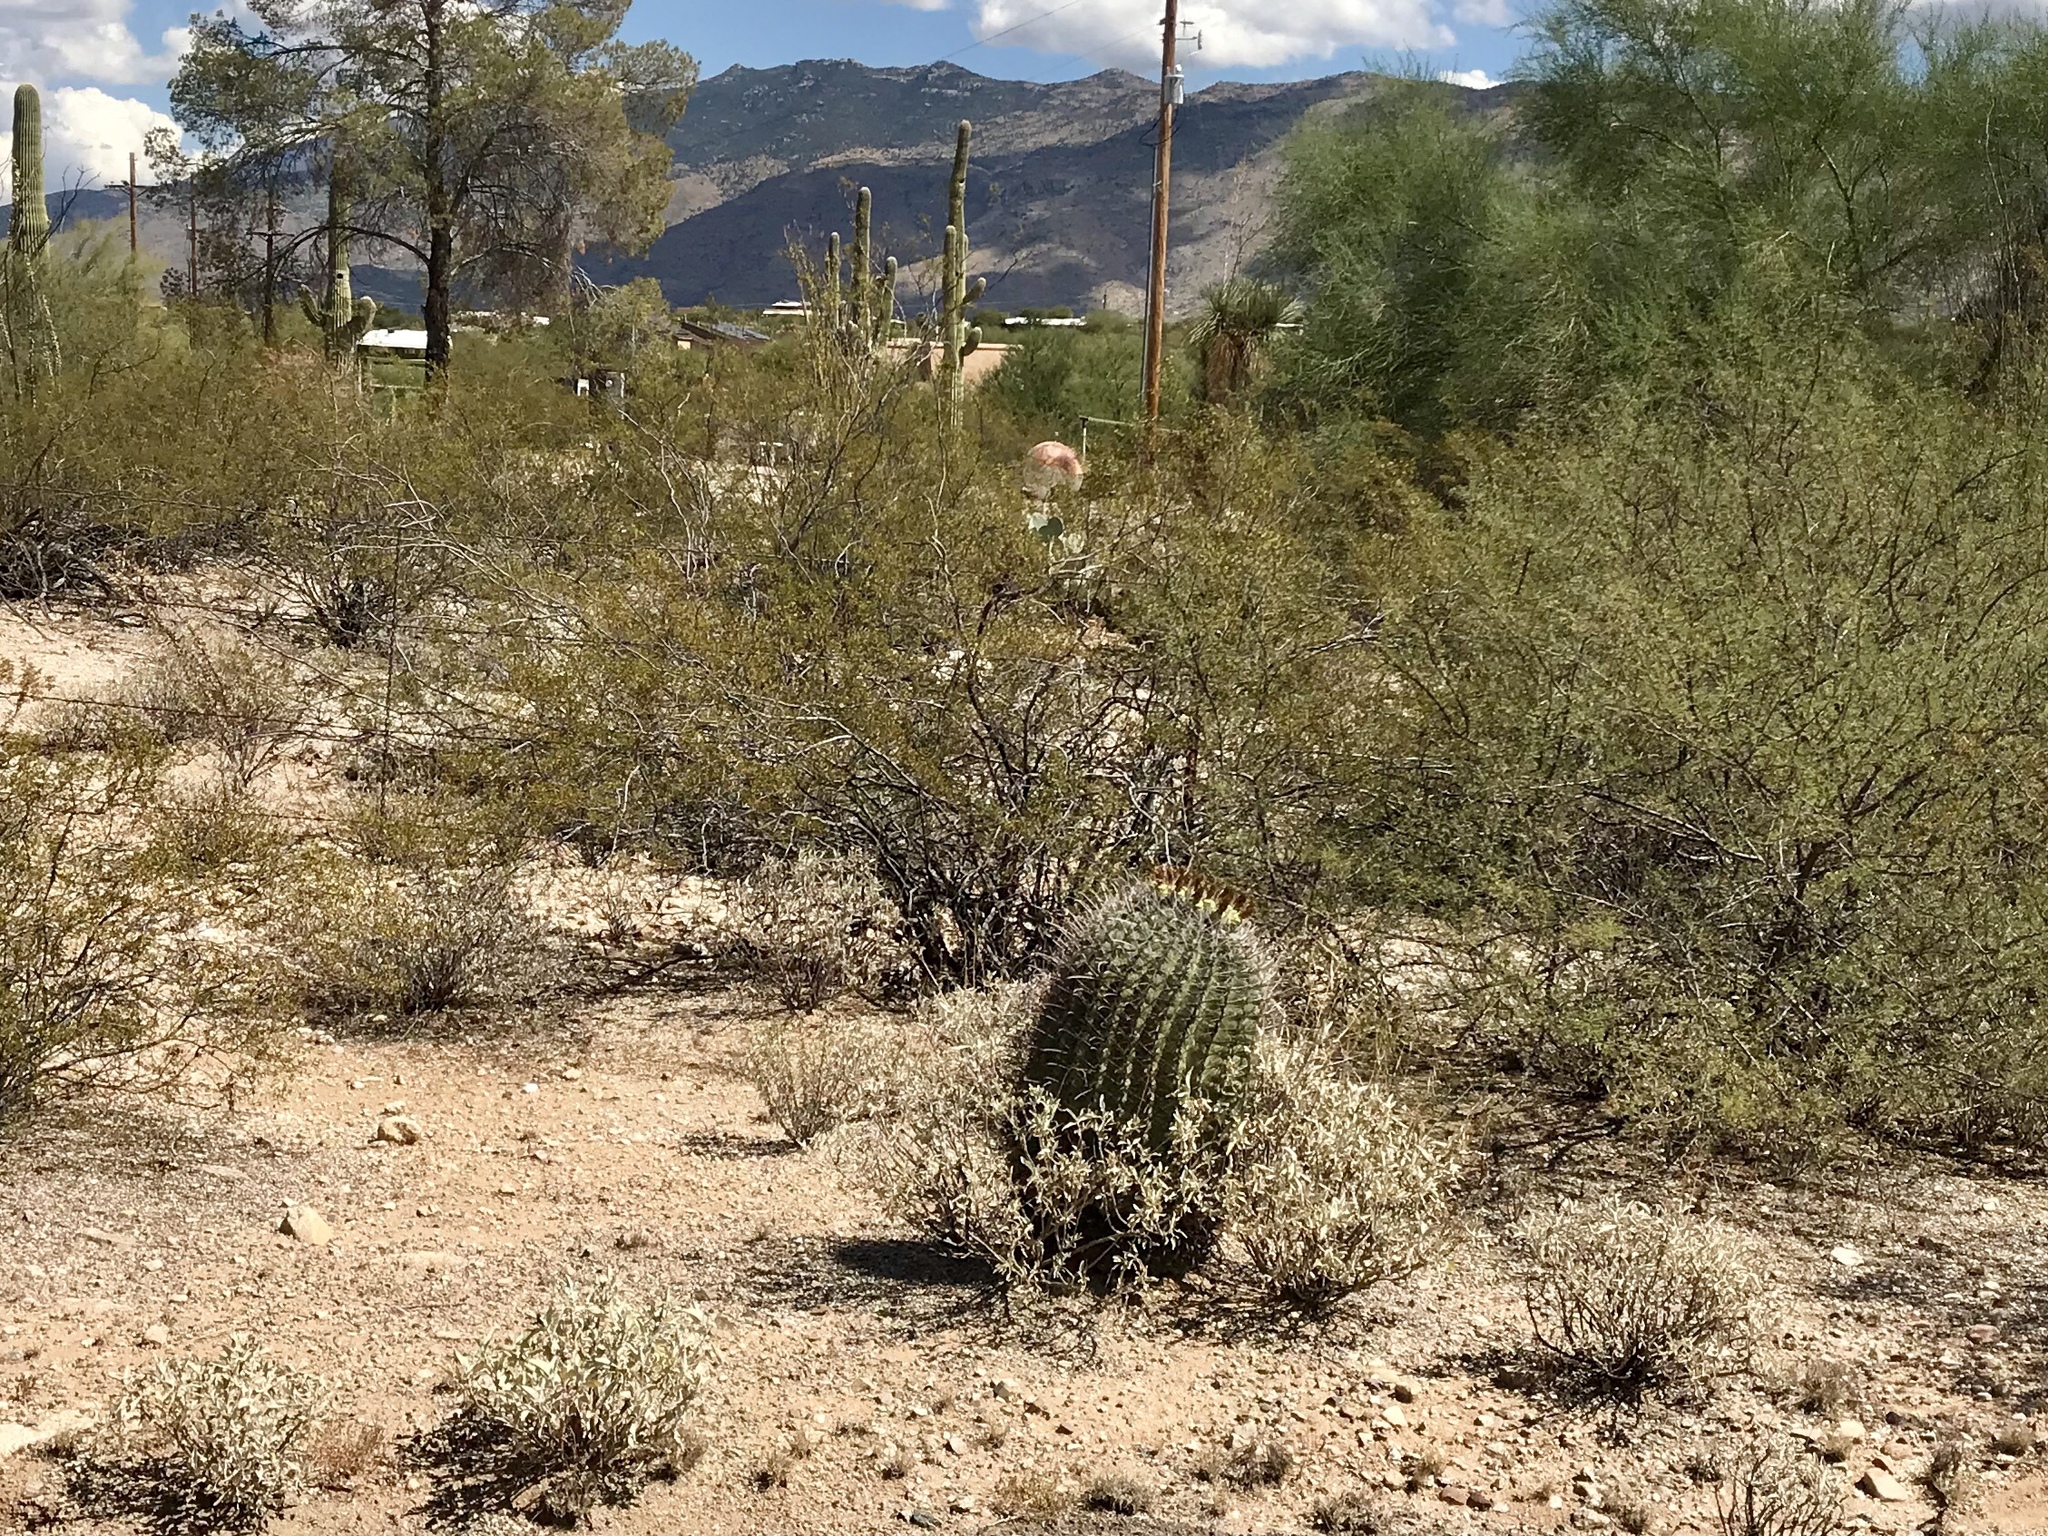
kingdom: Plantae
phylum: Tracheophyta
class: Magnoliopsida
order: Caryophyllales
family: Cactaceae
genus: Ferocactus
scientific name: Ferocactus wislizeni
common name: Candy barrel cactus
